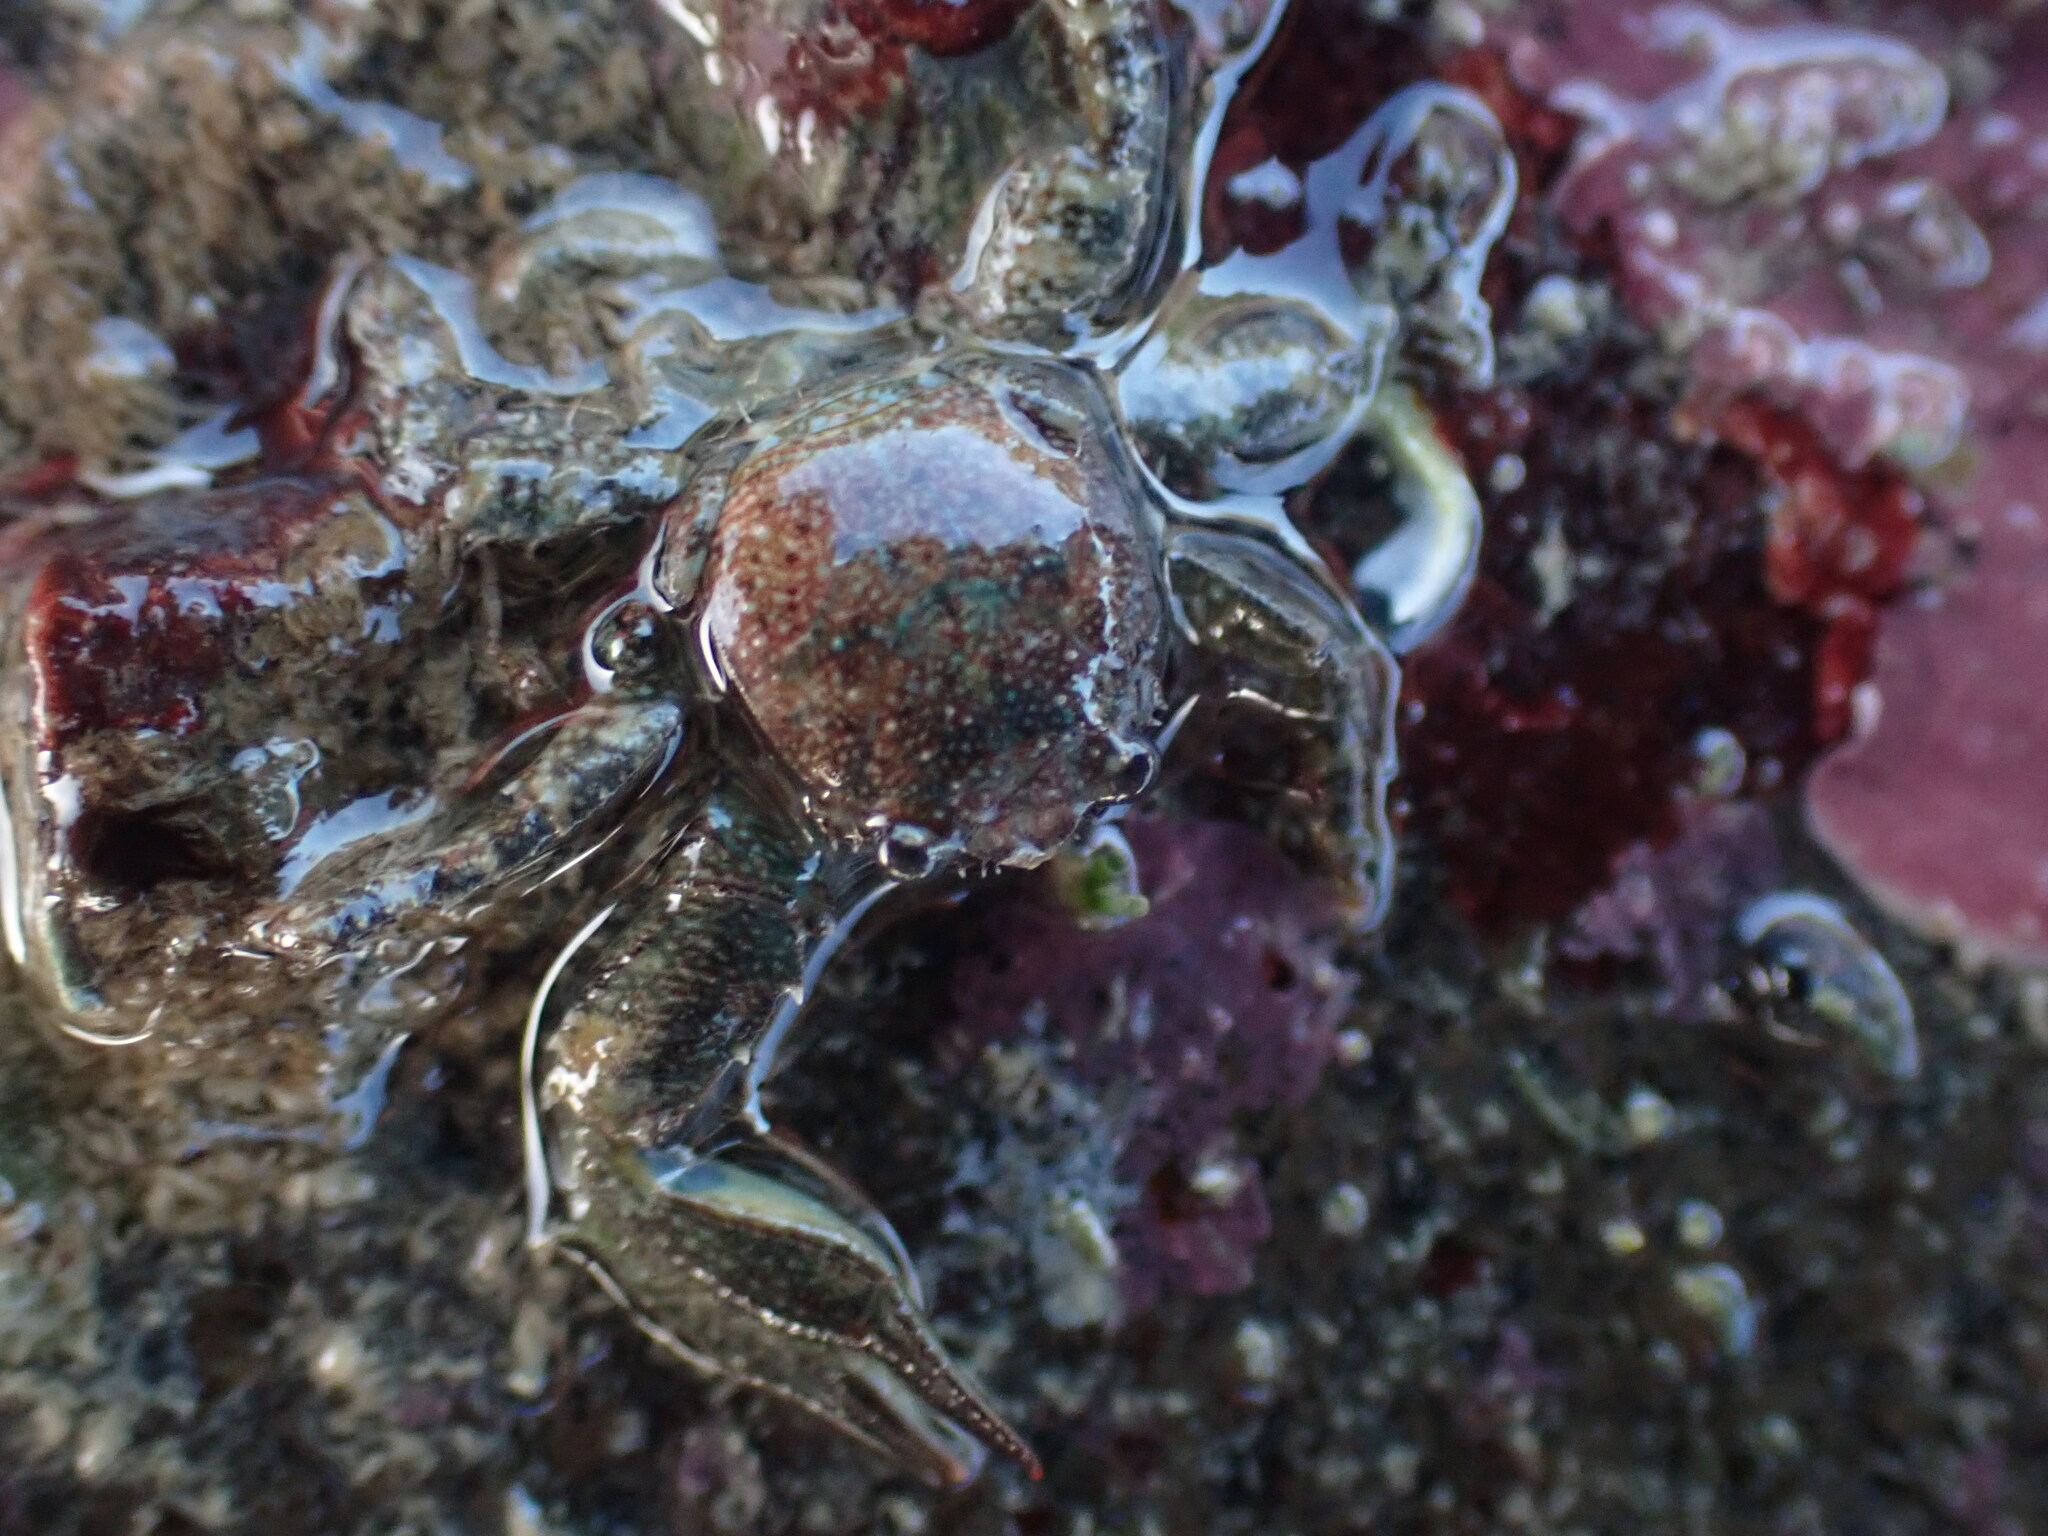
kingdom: Animalia
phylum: Arthropoda
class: Malacostraca
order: Decapoda
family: Porcellanidae
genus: Petrolisthes
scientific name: Petrolisthes elongatus
